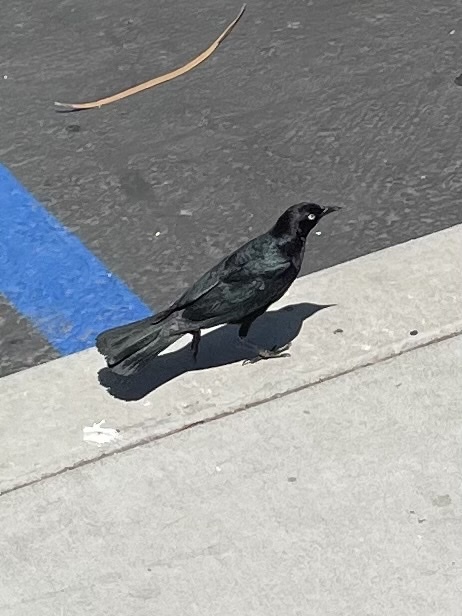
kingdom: Animalia
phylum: Chordata
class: Aves
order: Passeriformes
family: Icteridae
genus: Euphagus
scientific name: Euphagus cyanocephalus
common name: Brewer's blackbird
